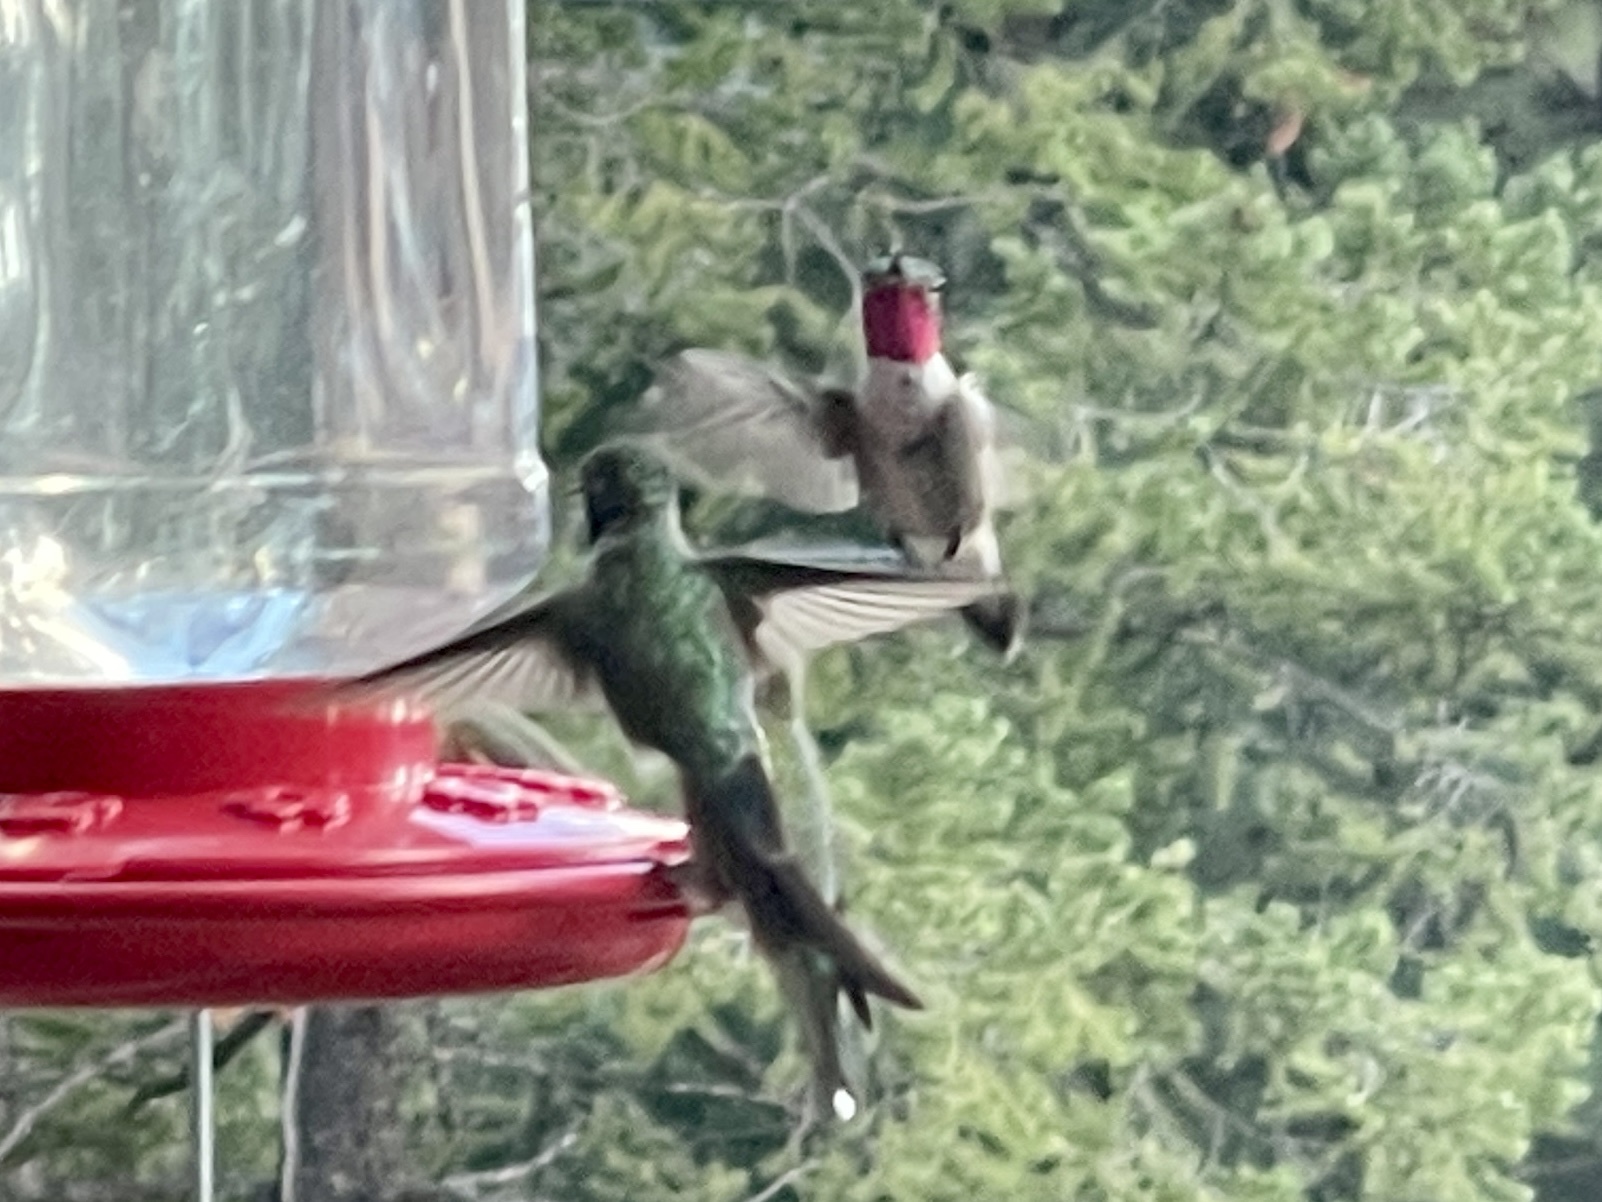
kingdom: Animalia
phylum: Chordata
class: Aves
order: Apodiformes
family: Trochilidae
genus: Selasphorus
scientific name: Selasphorus platycercus
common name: Broad-tailed hummingbird
